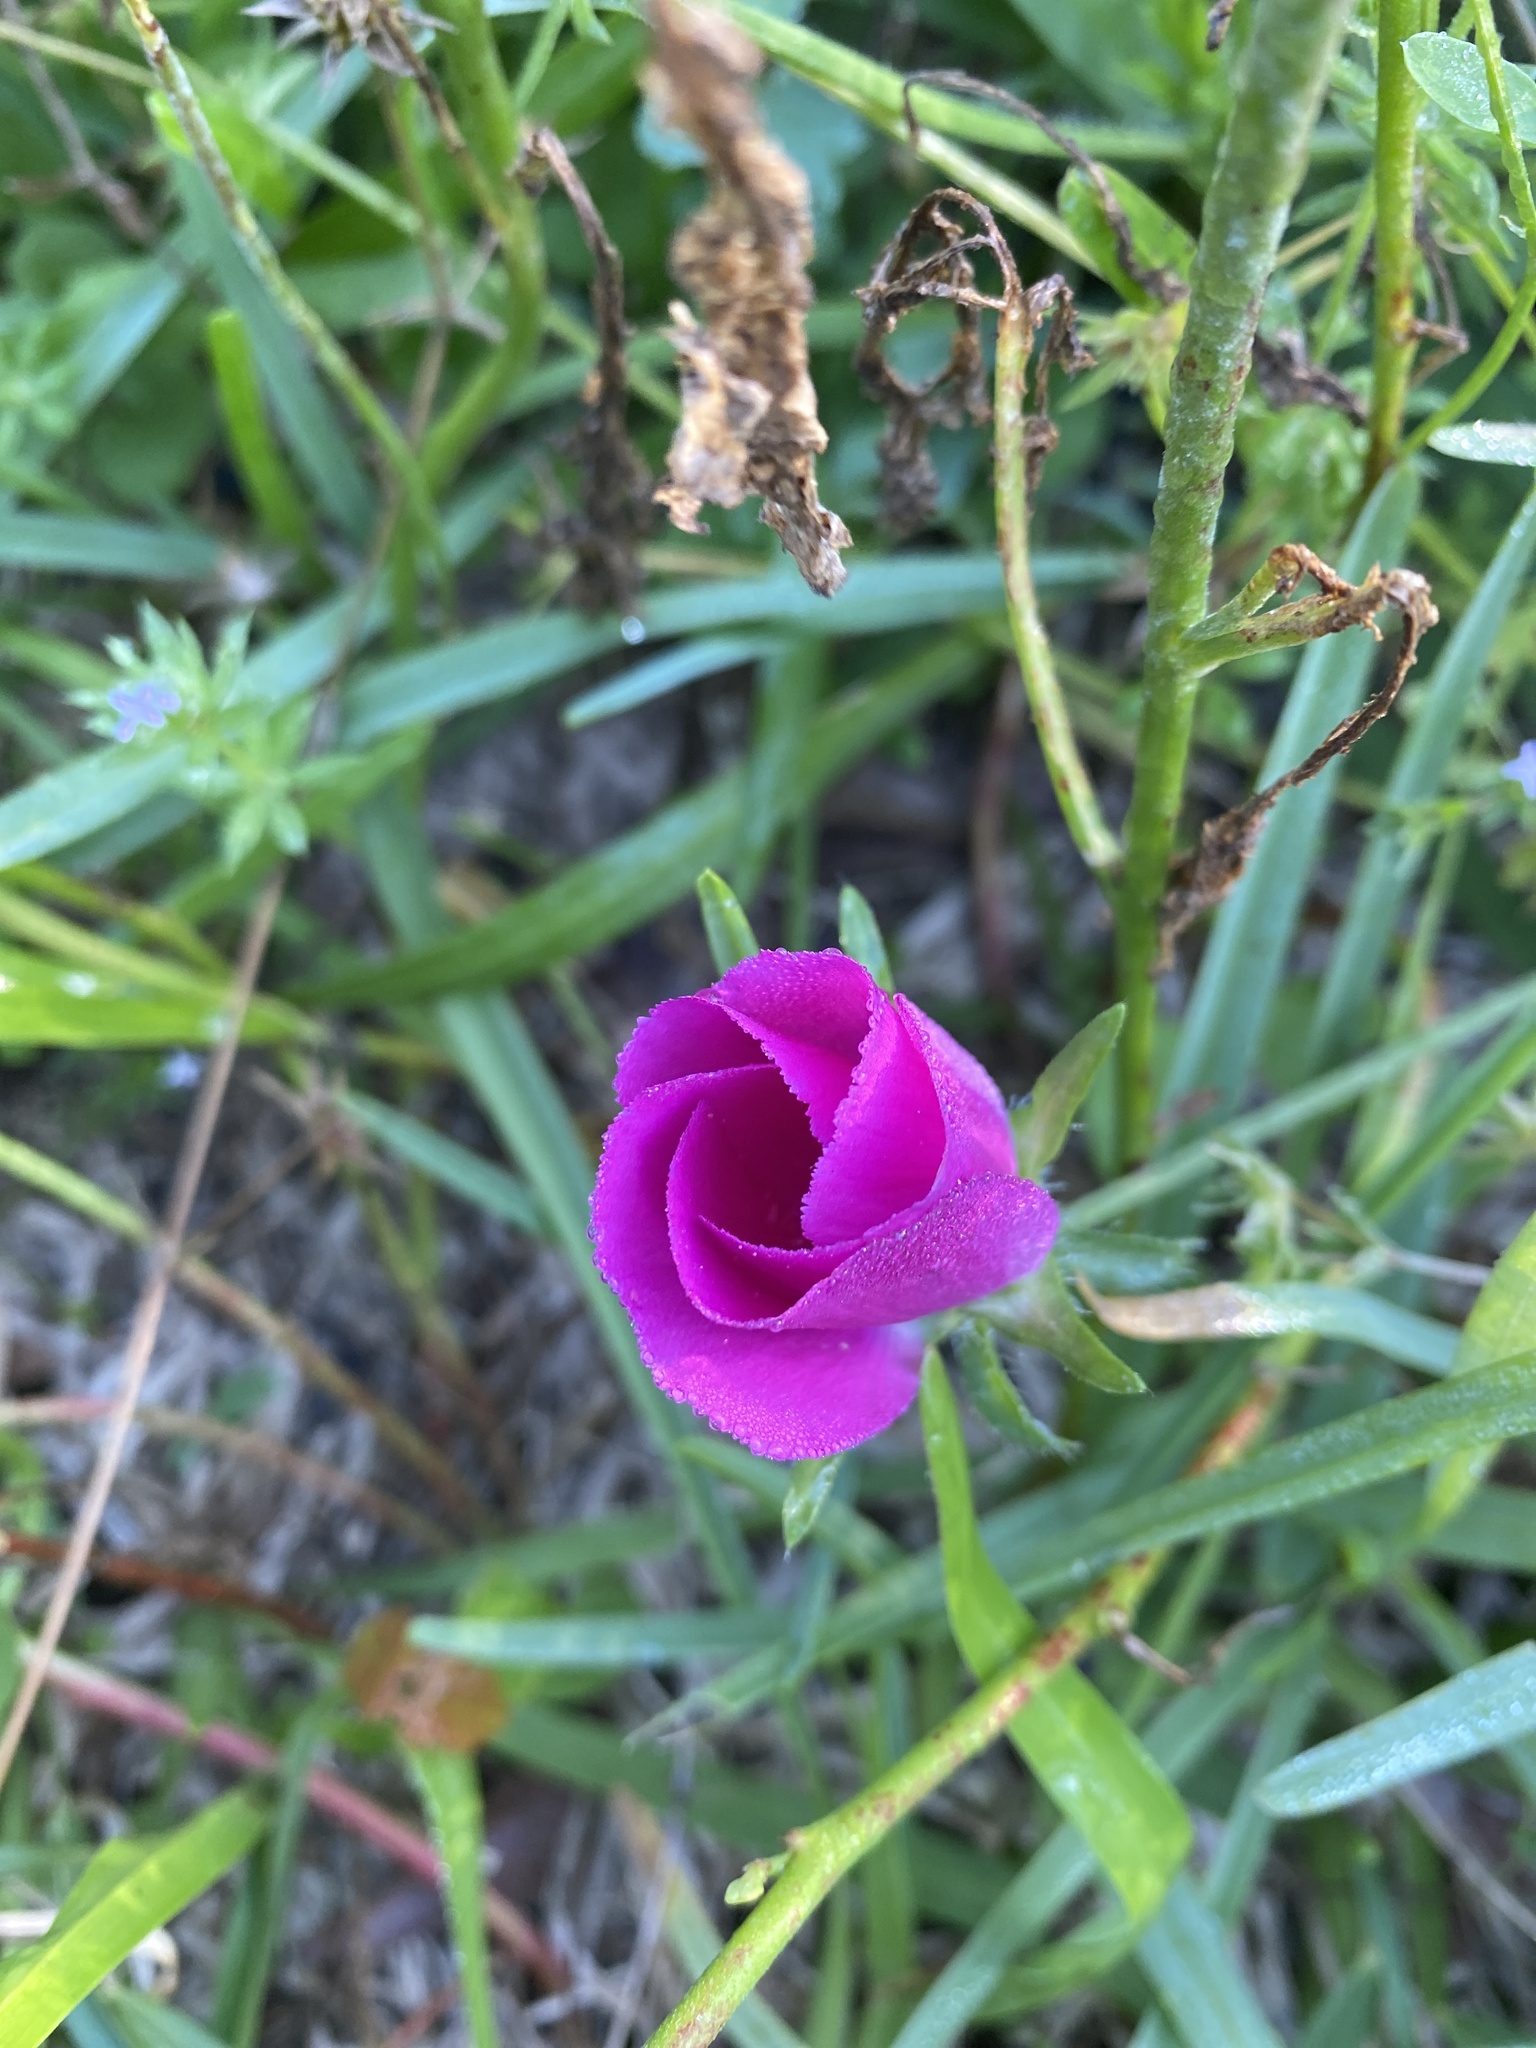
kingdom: Plantae
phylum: Tracheophyta
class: Magnoliopsida
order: Malvales
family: Malvaceae
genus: Callirhoe
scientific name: Callirhoe involucrata
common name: Purple poppy-mallow
